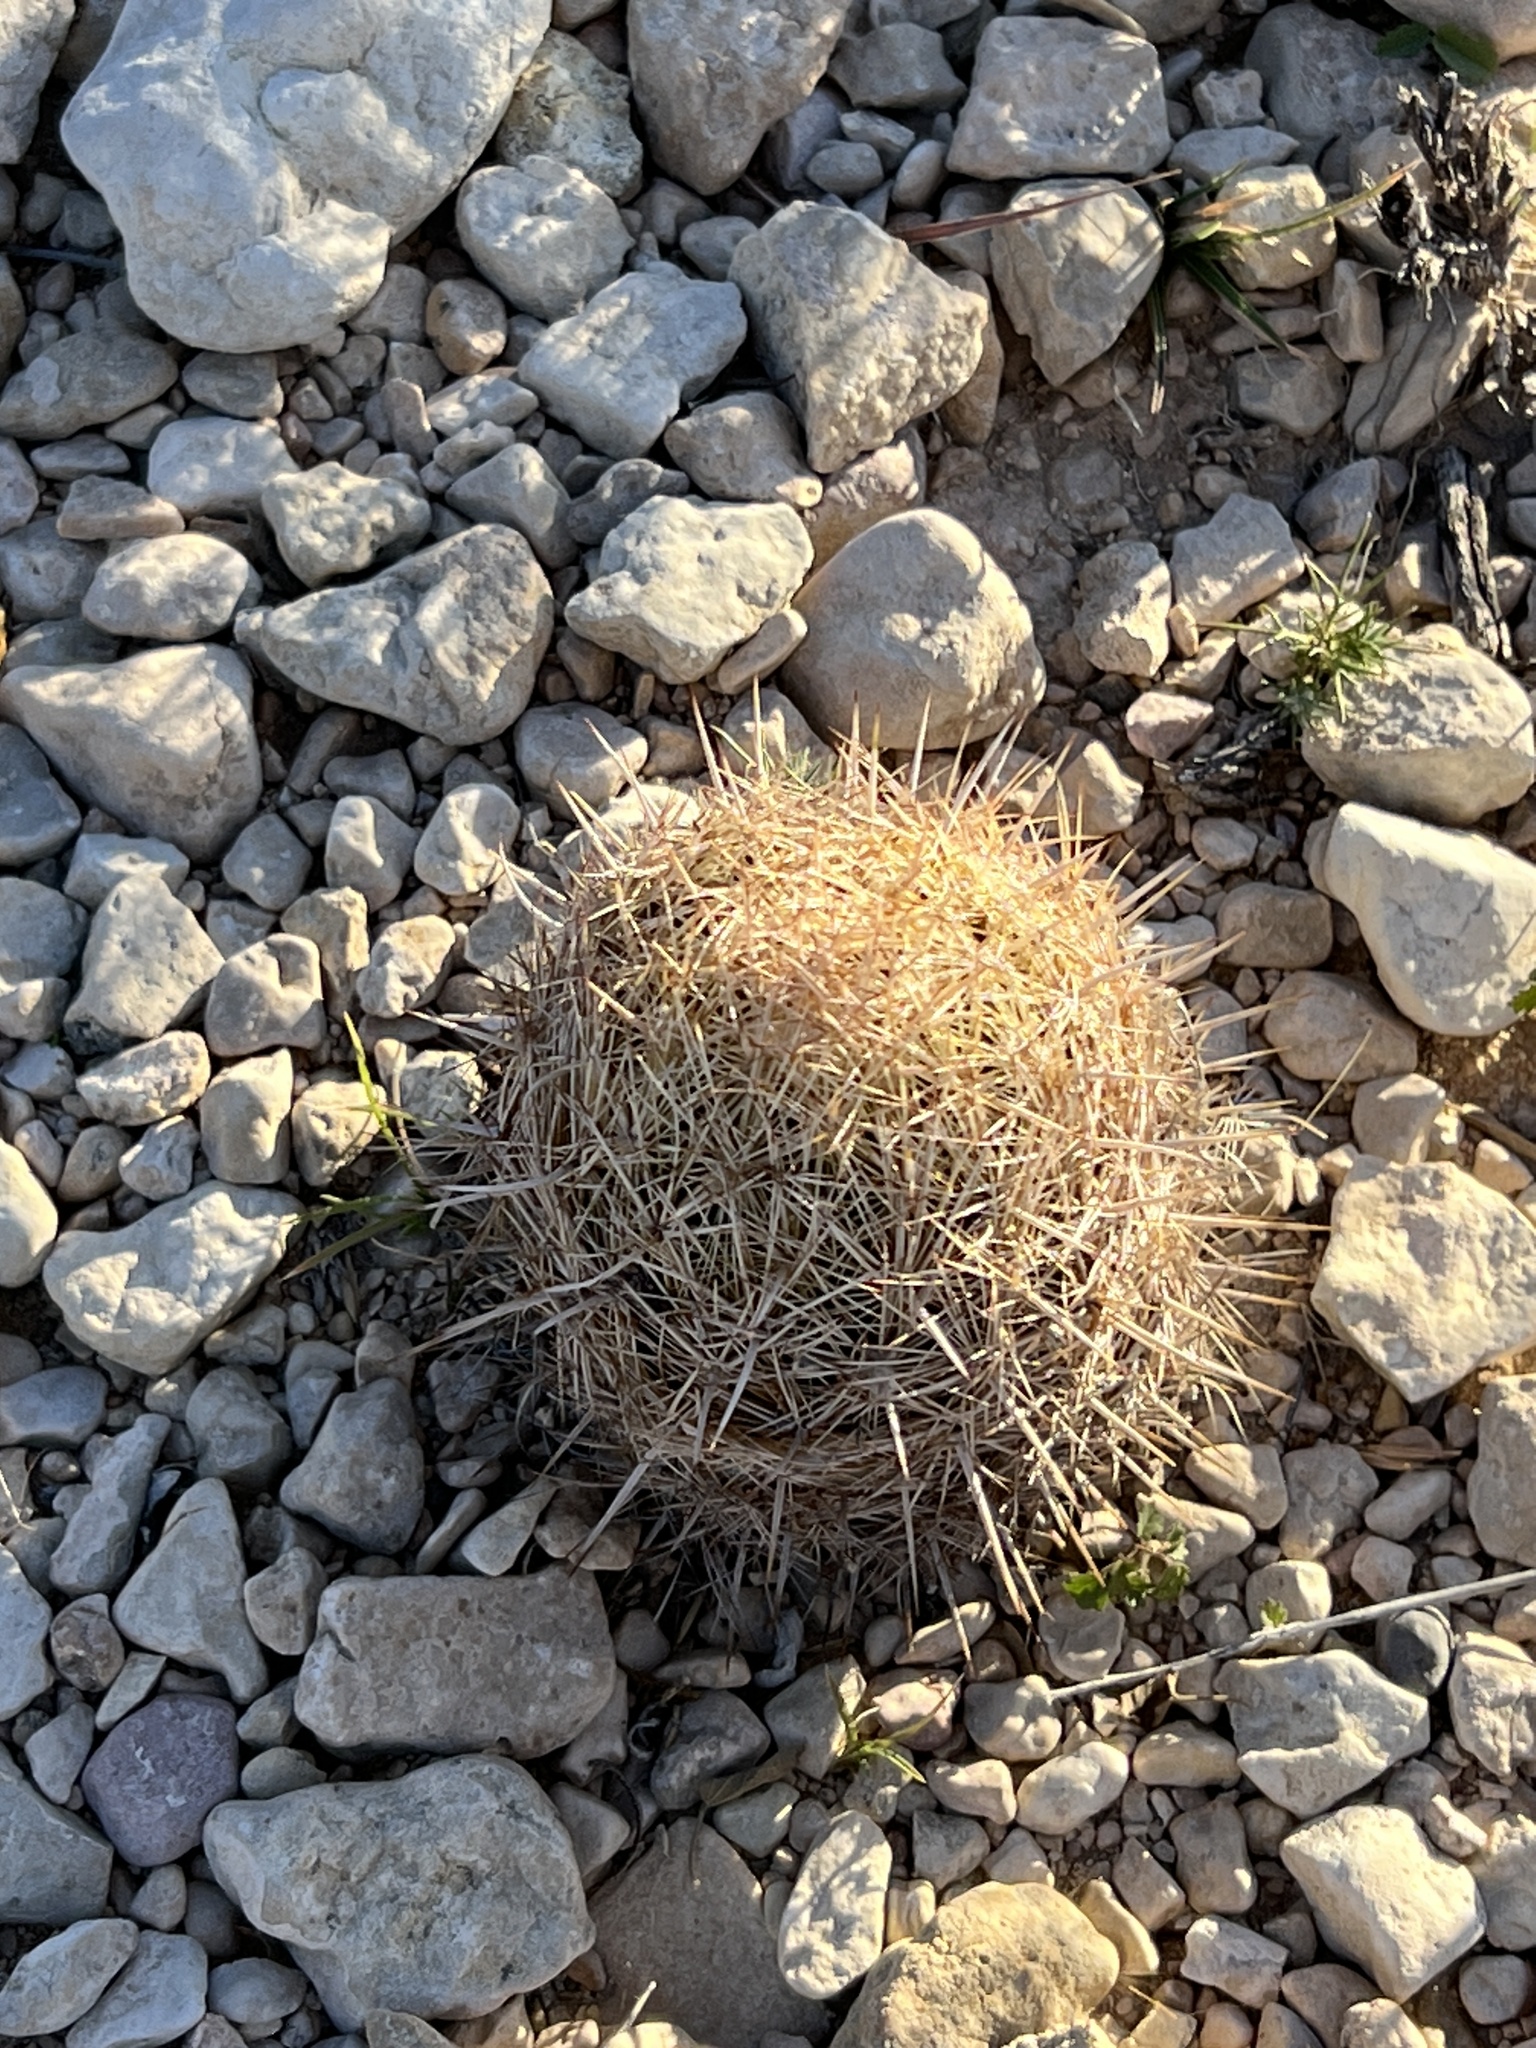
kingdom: Plantae
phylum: Tracheophyta
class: Magnoliopsida
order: Caryophyllales
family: Cactaceae
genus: Coryphantha
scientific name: Coryphantha echinus
